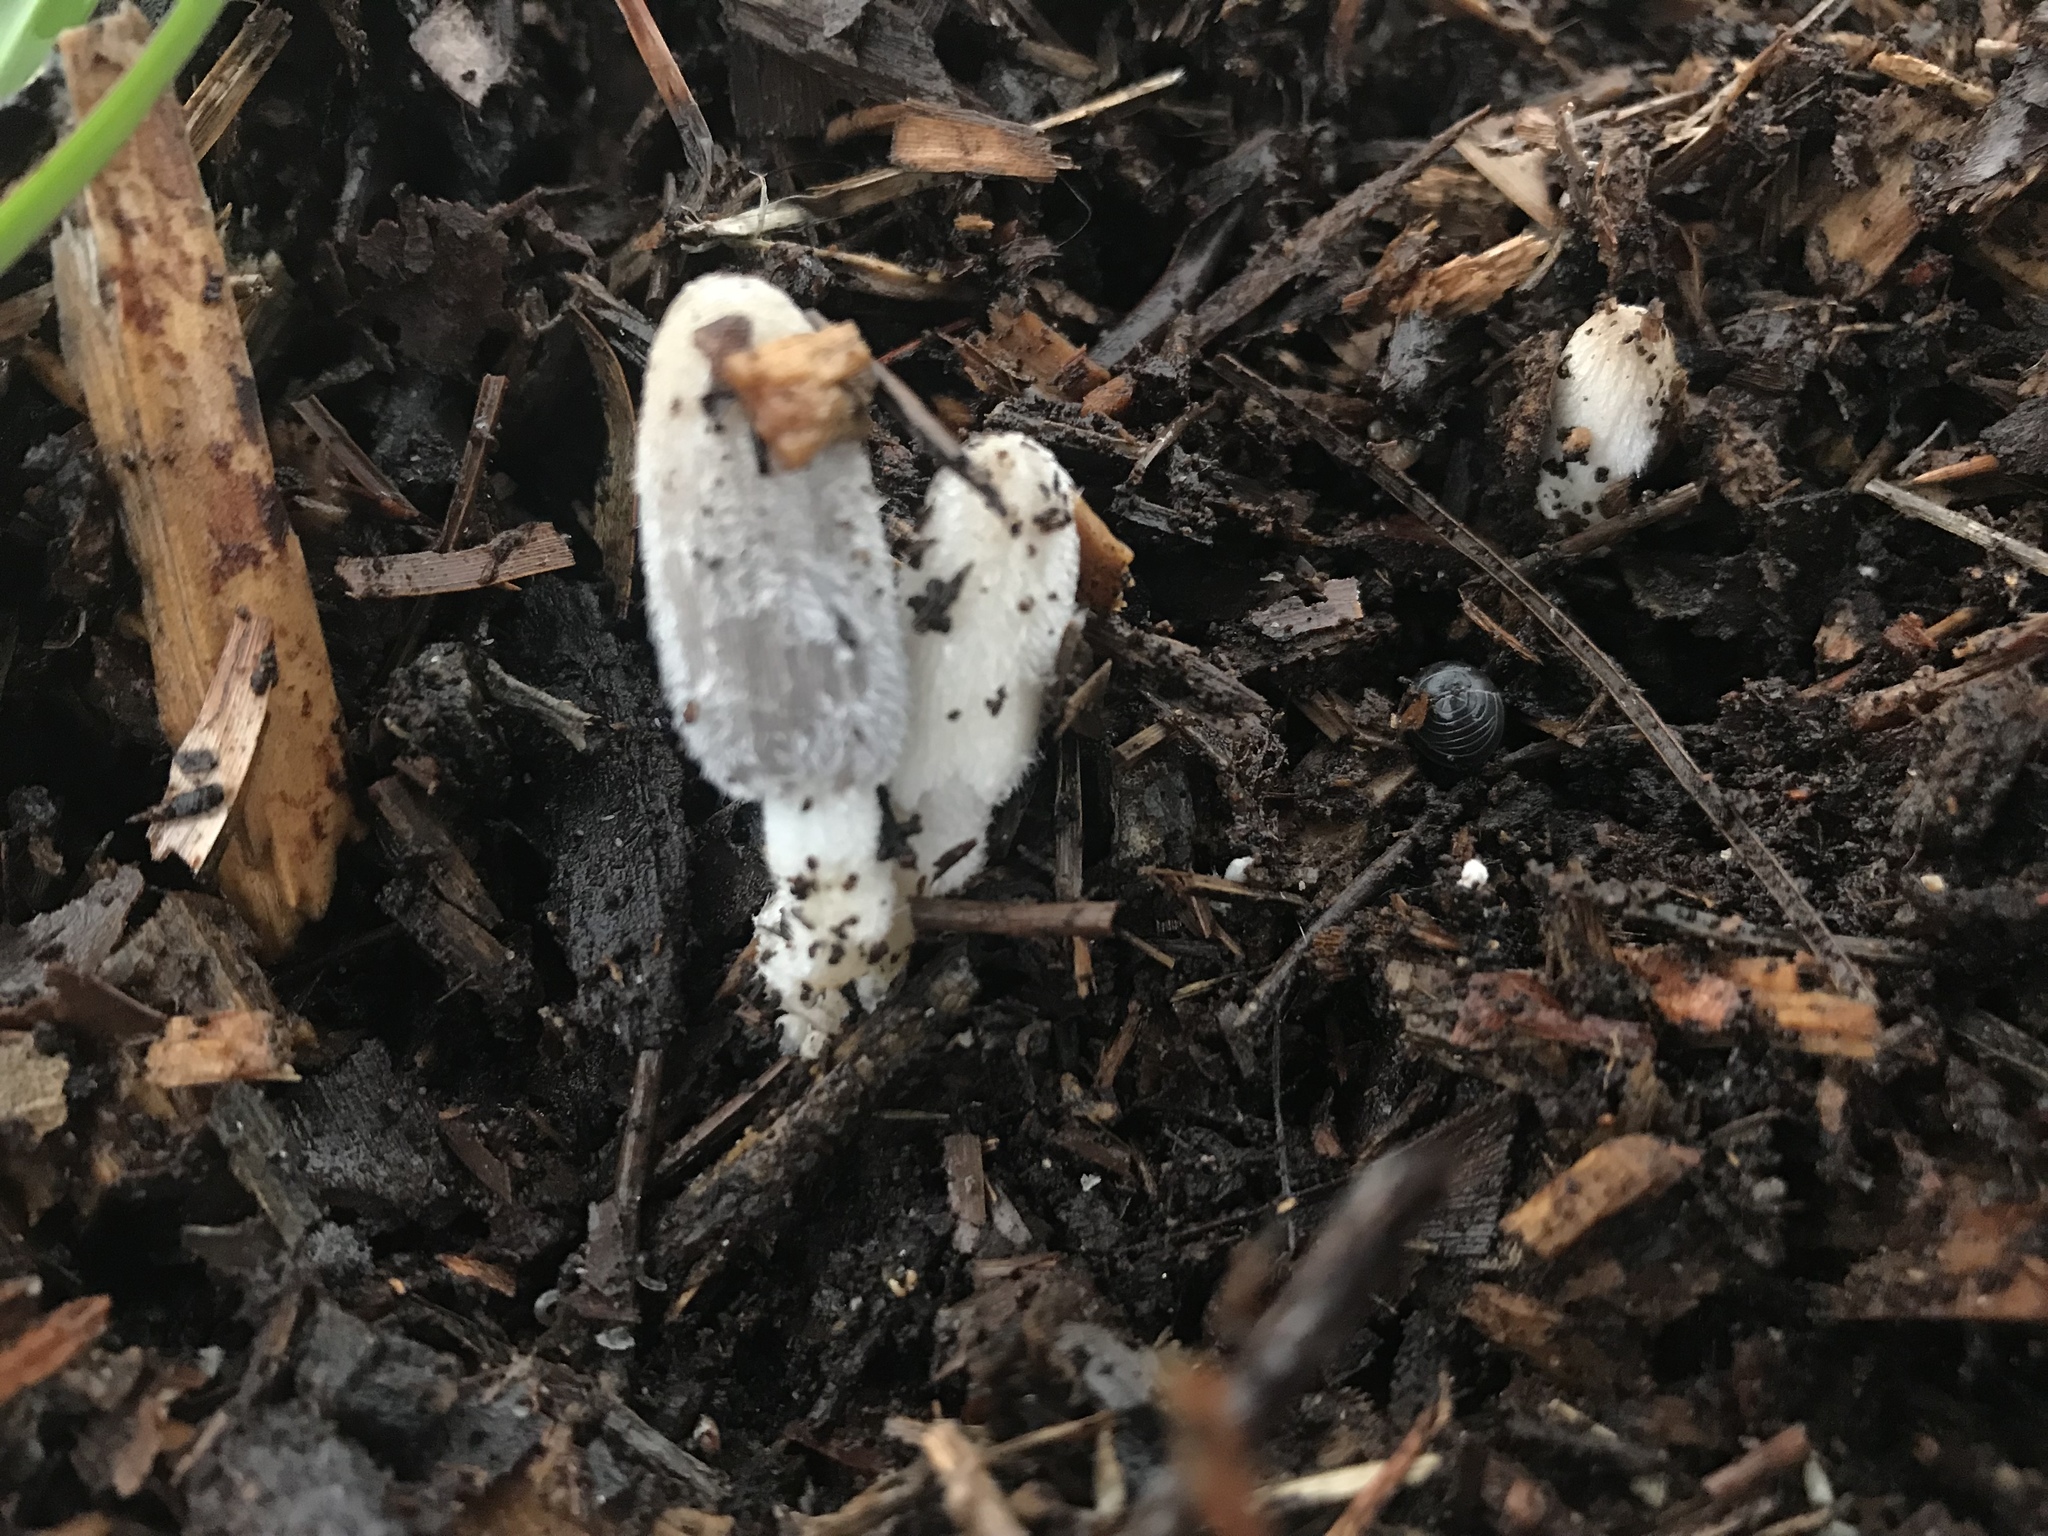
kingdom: Fungi
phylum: Basidiomycota
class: Agaricomycetes
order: Agaricales
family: Psathyrellaceae
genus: Coprinopsis
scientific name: Coprinopsis lagopus
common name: Hare'sfoot inkcap
